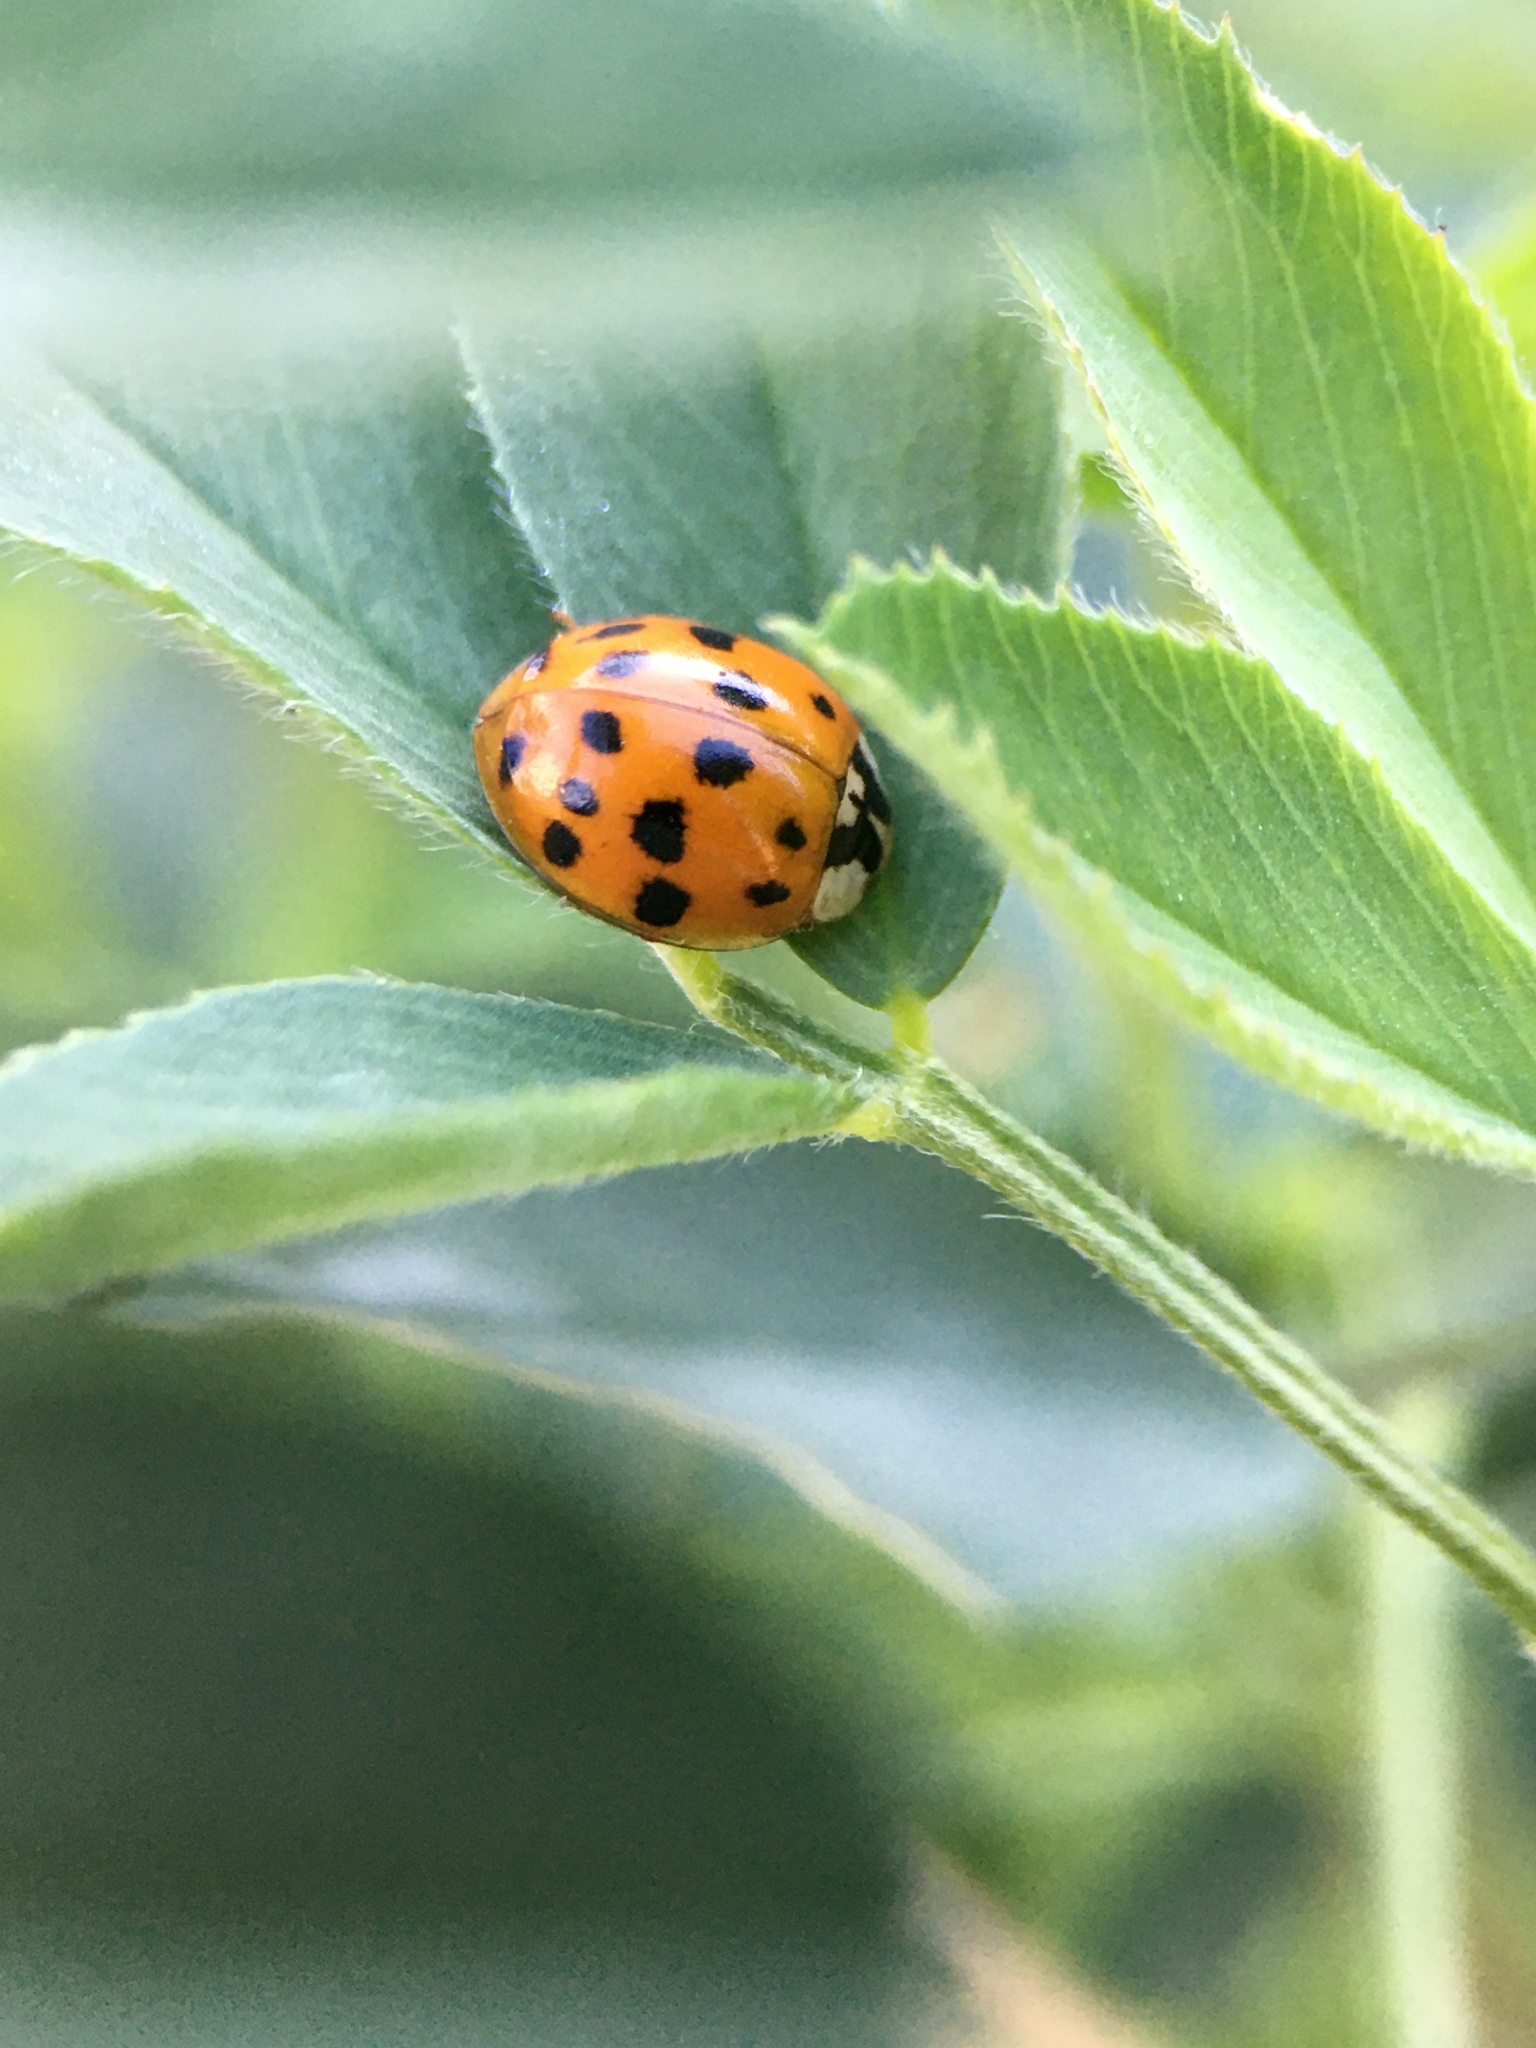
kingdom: Animalia
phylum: Arthropoda
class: Insecta
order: Coleoptera
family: Coccinellidae
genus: Harmonia
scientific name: Harmonia axyridis
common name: Harlequin ladybird
